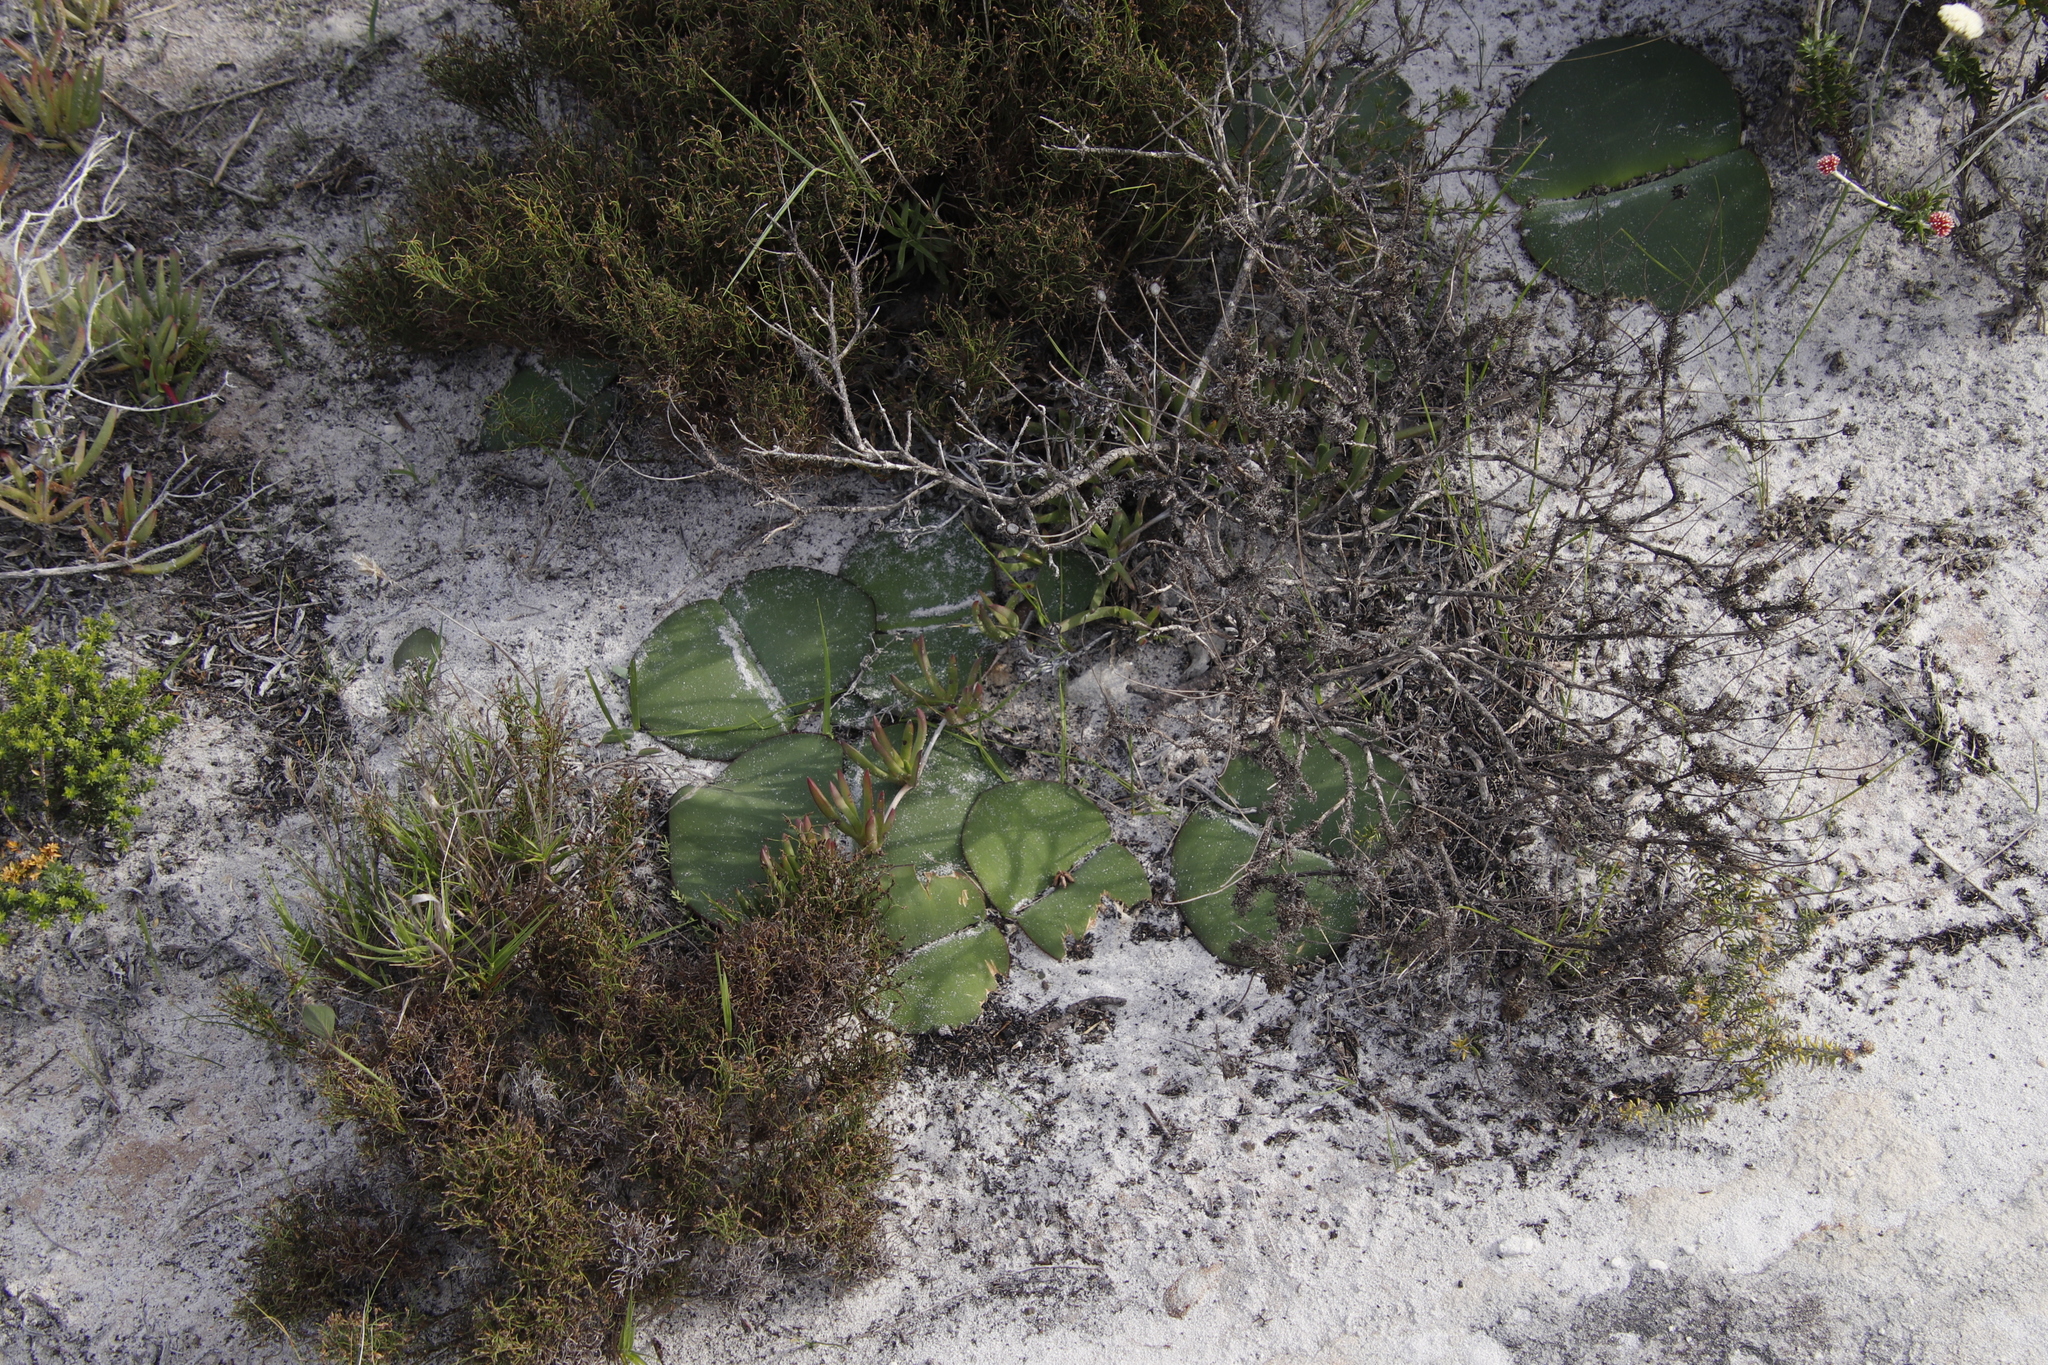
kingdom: Plantae
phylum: Tracheophyta
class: Liliopsida
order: Asparagales
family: Amaryllidaceae
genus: Haemanthus
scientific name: Haemanthus sanguineus
